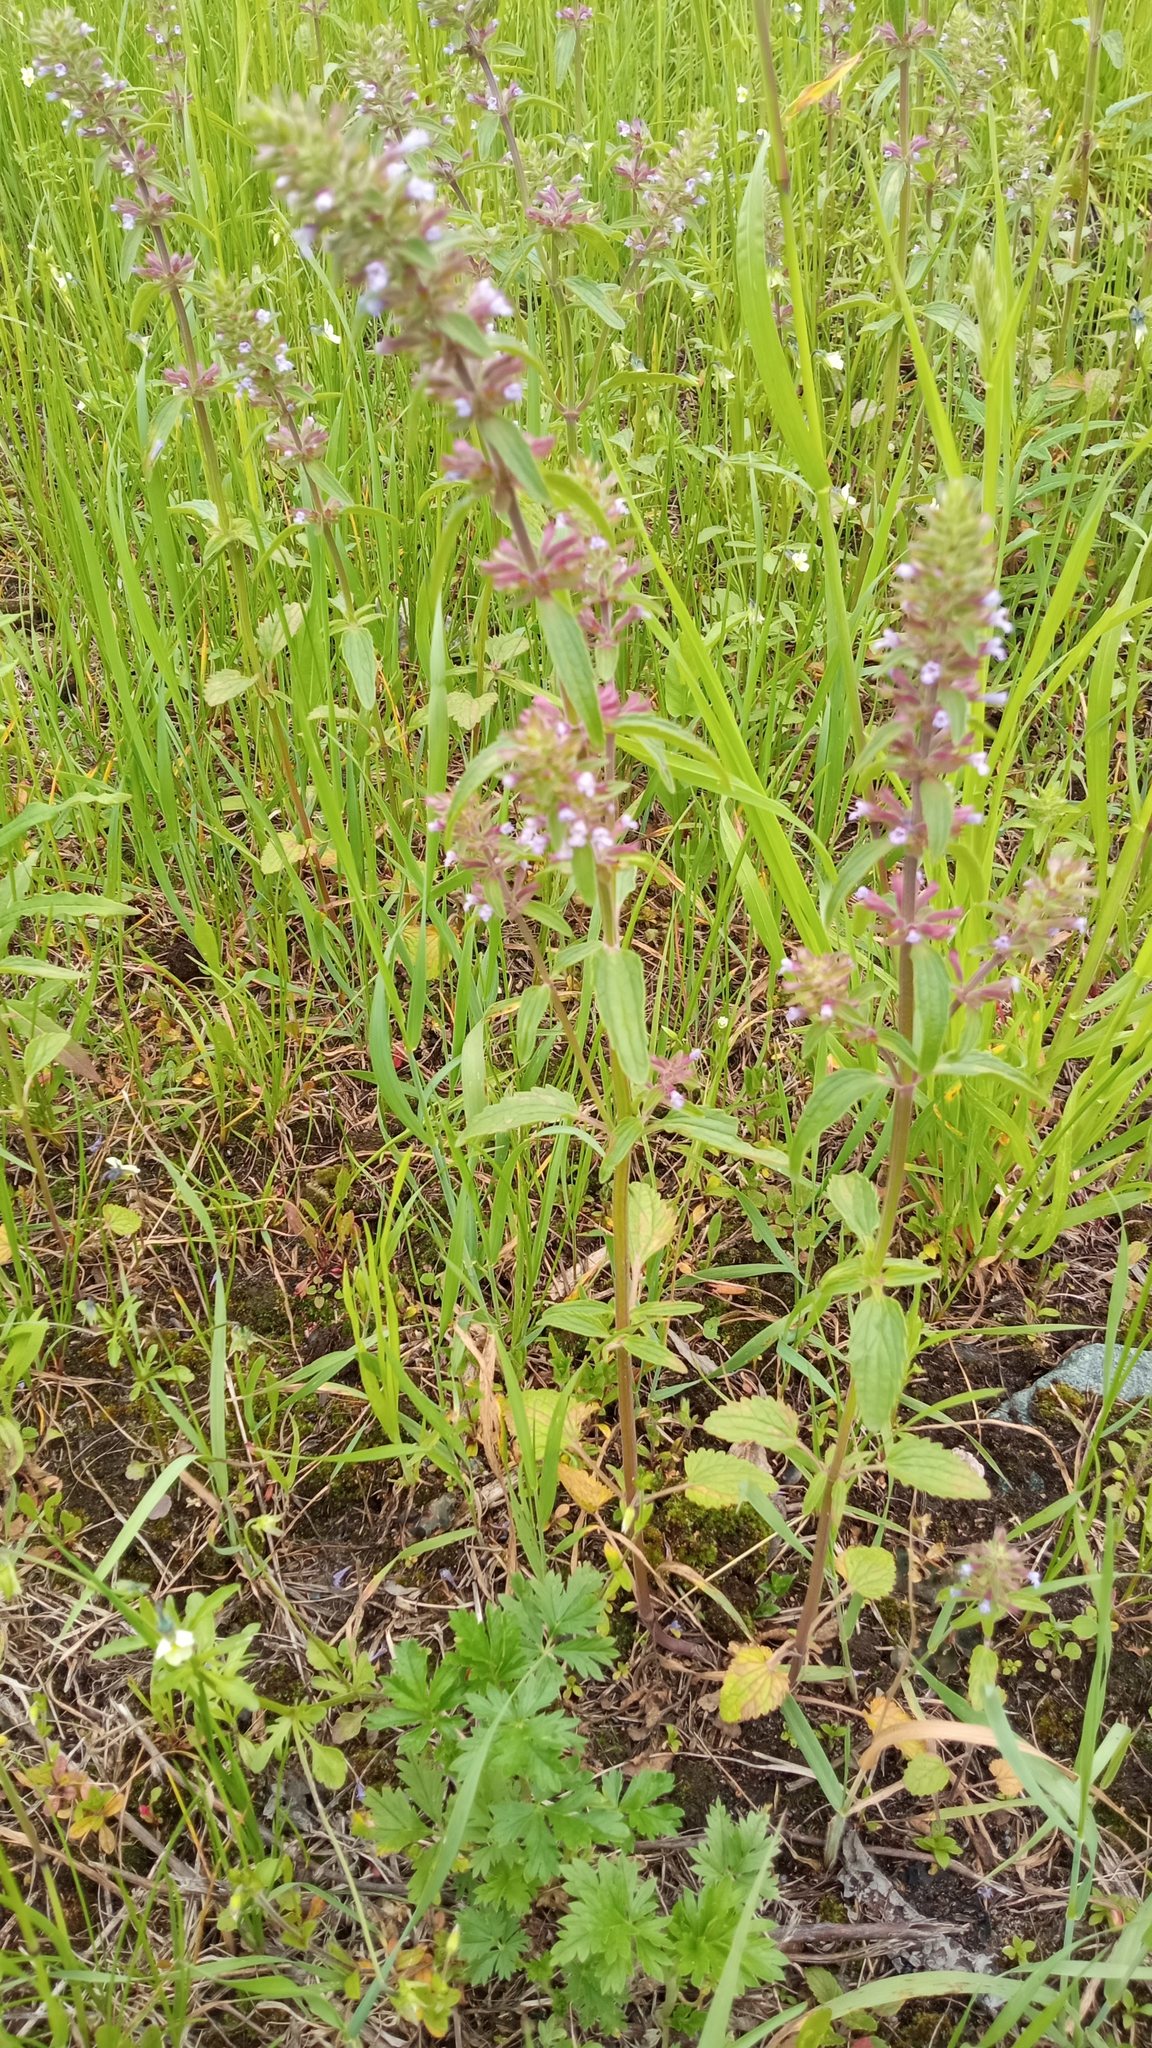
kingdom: Plantae
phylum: Tracheophyta
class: Magnoliopsida
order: Lamiales
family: Lamiaceae
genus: Dracocephalum
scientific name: Dracocephalum thymiflorum
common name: Thymeleaf dragonhead
